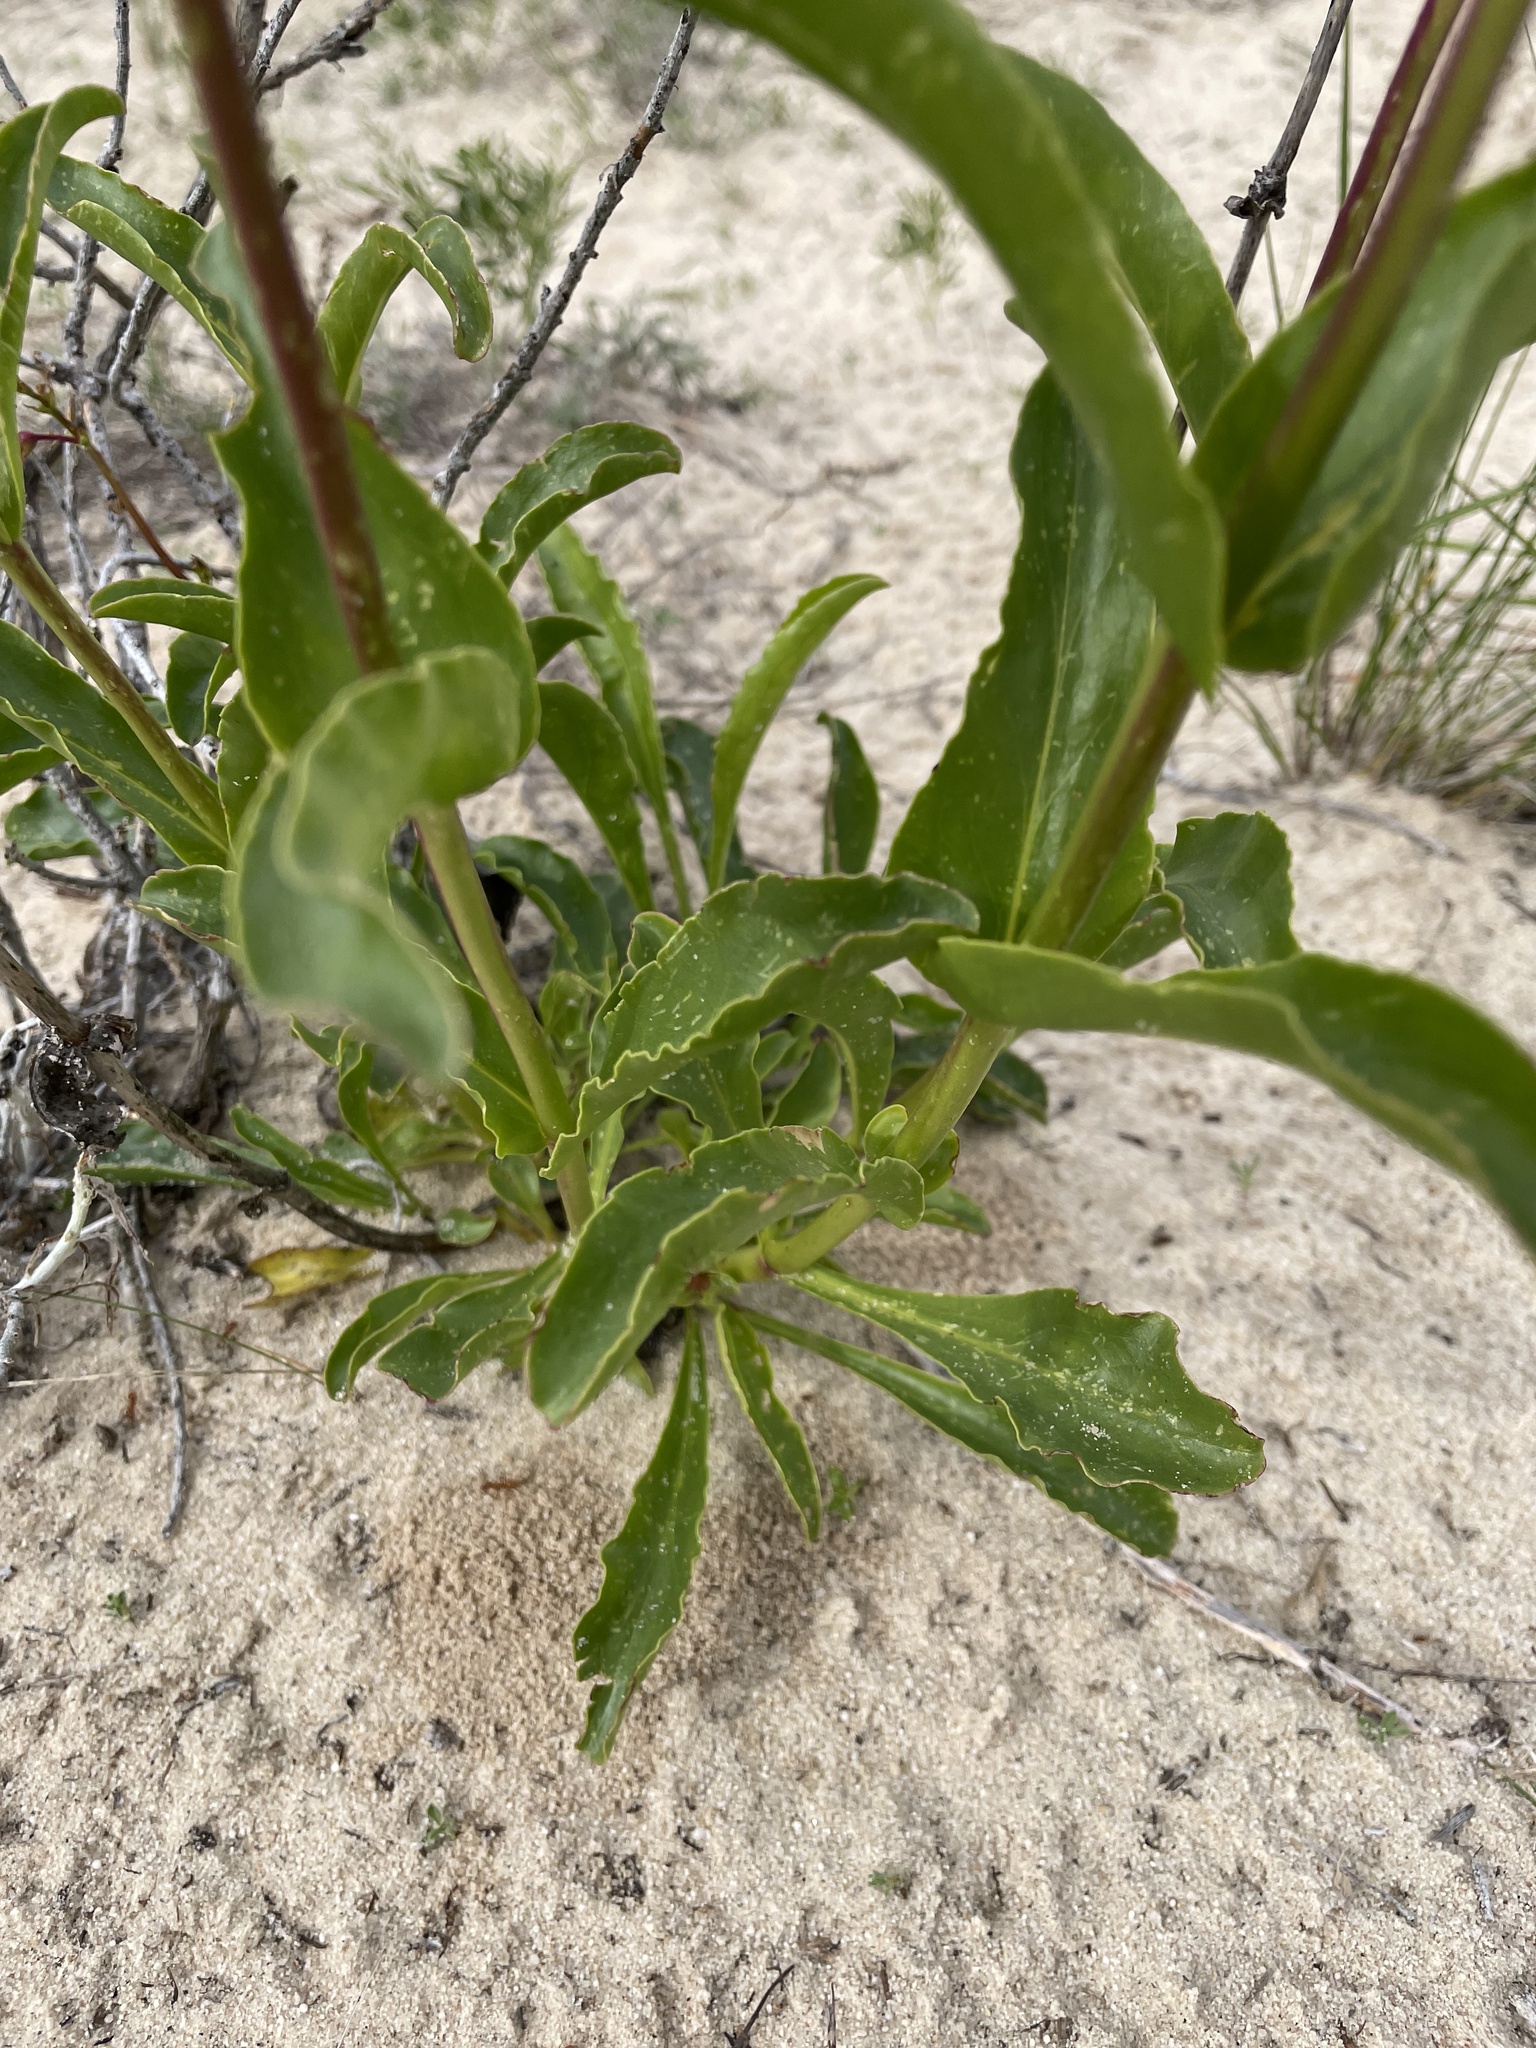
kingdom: Plantae
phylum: Tracheophyta
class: Magnoliopsida
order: Lamiales
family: Plantaginaceae
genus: Penstemon
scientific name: Penstemon eatonii
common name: Eaton's penstemon
